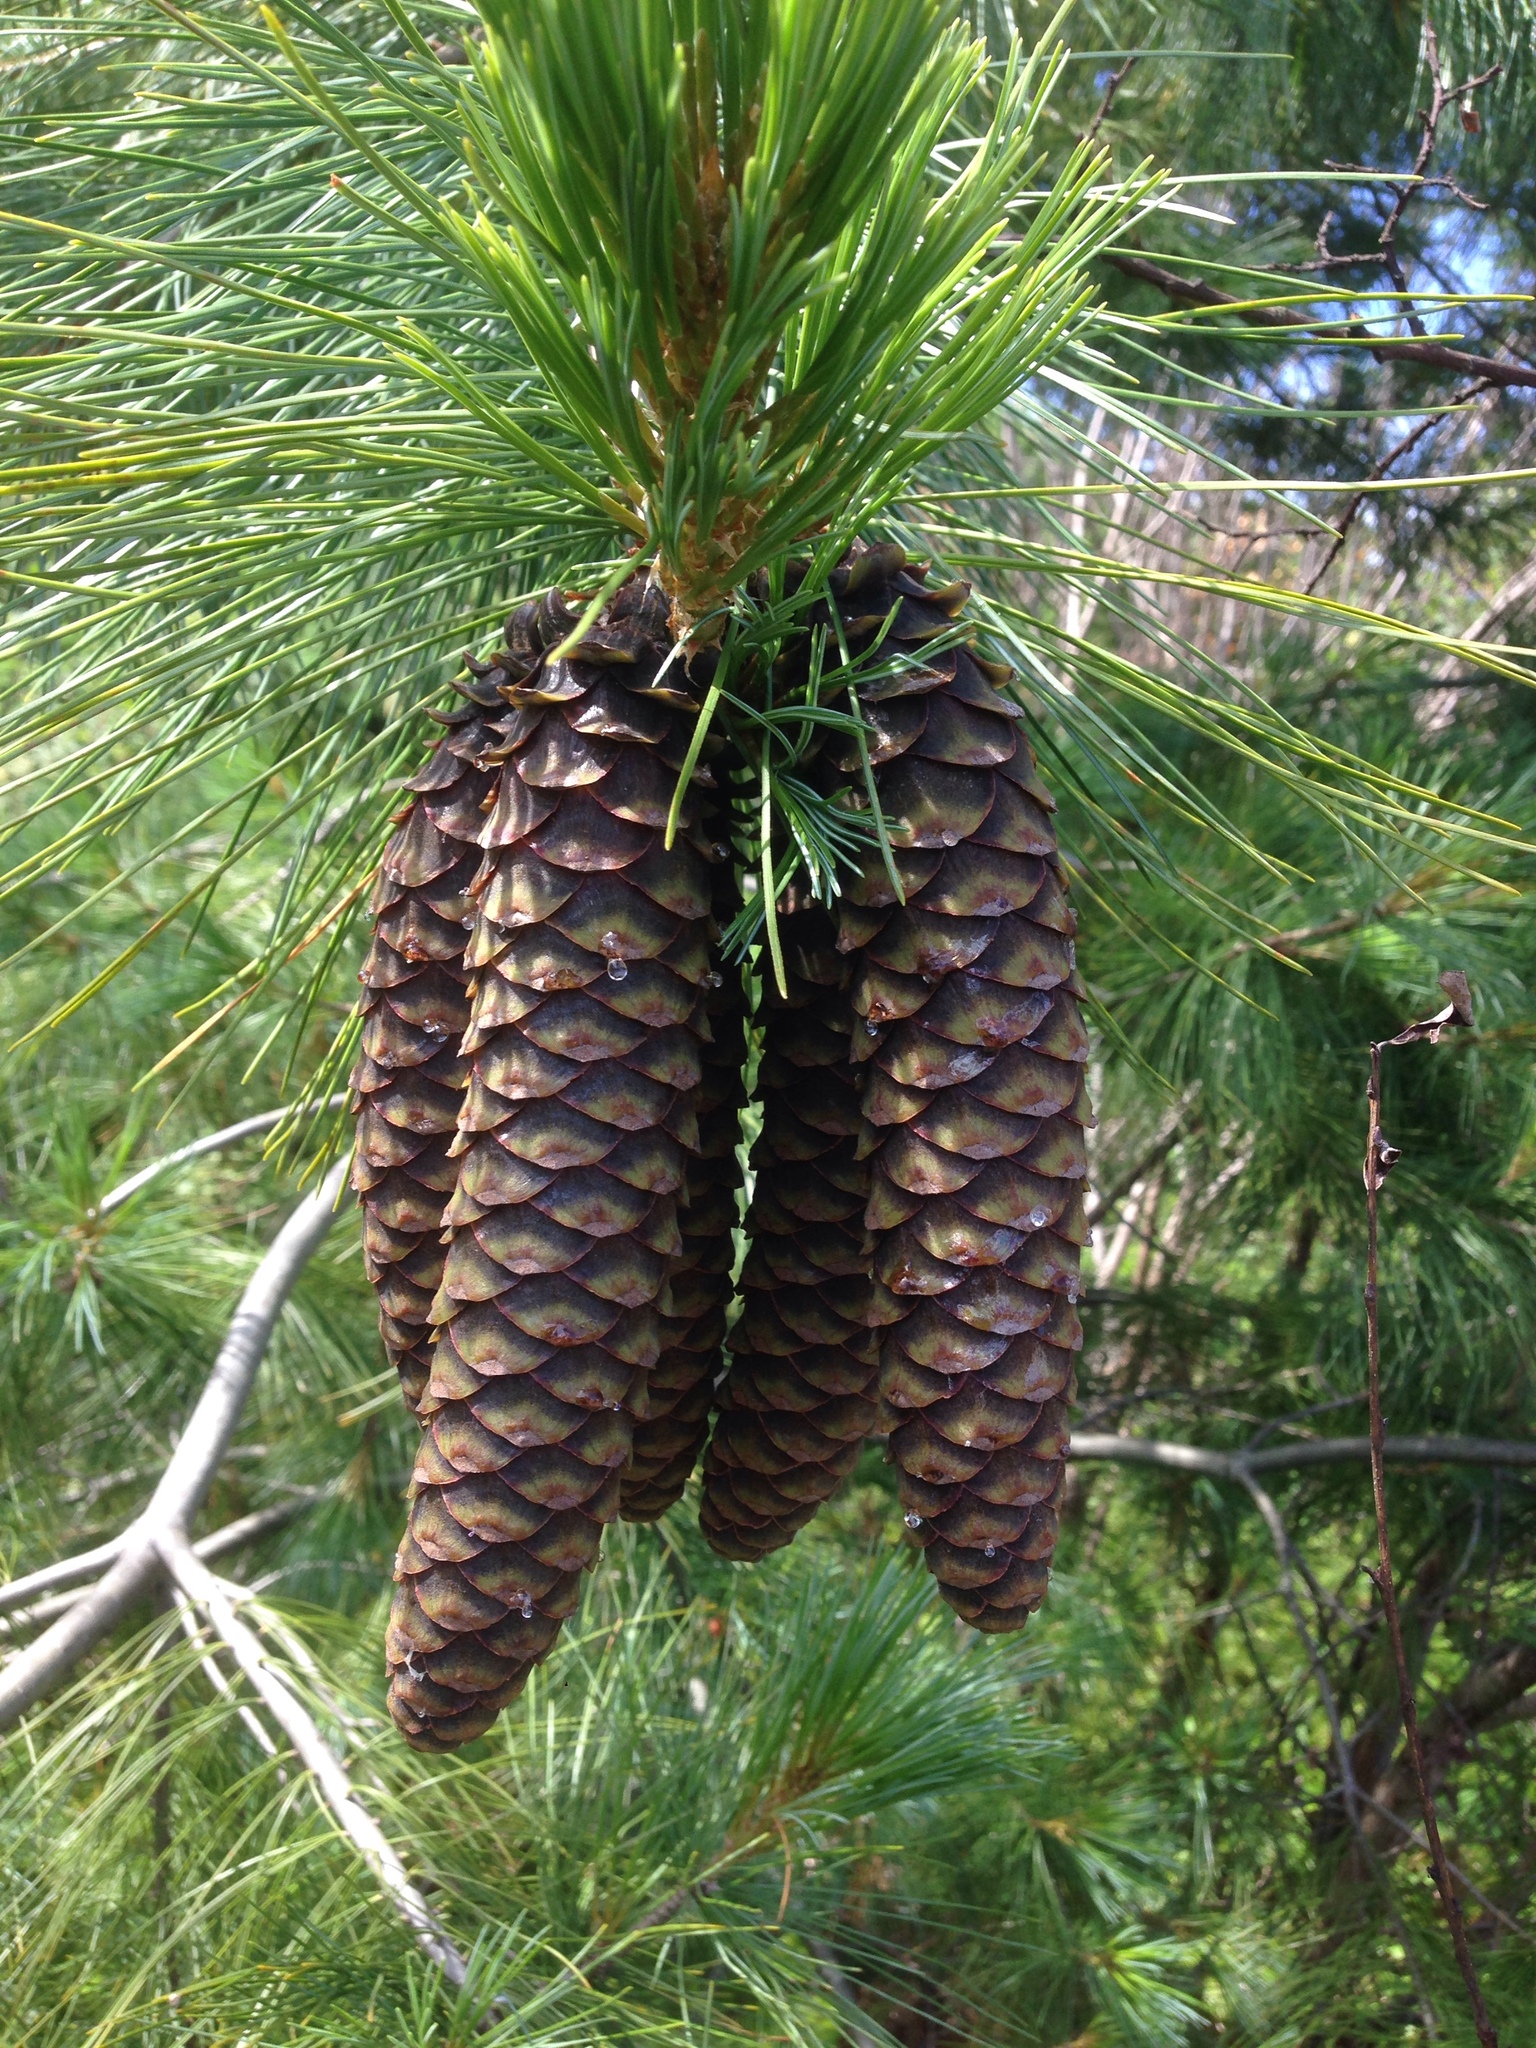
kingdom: Plantae
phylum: Tracheophyta
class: Pinopsida
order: Pinales
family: Pinaceae
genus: Pinus
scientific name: Pinus monticola
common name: Western white pine
